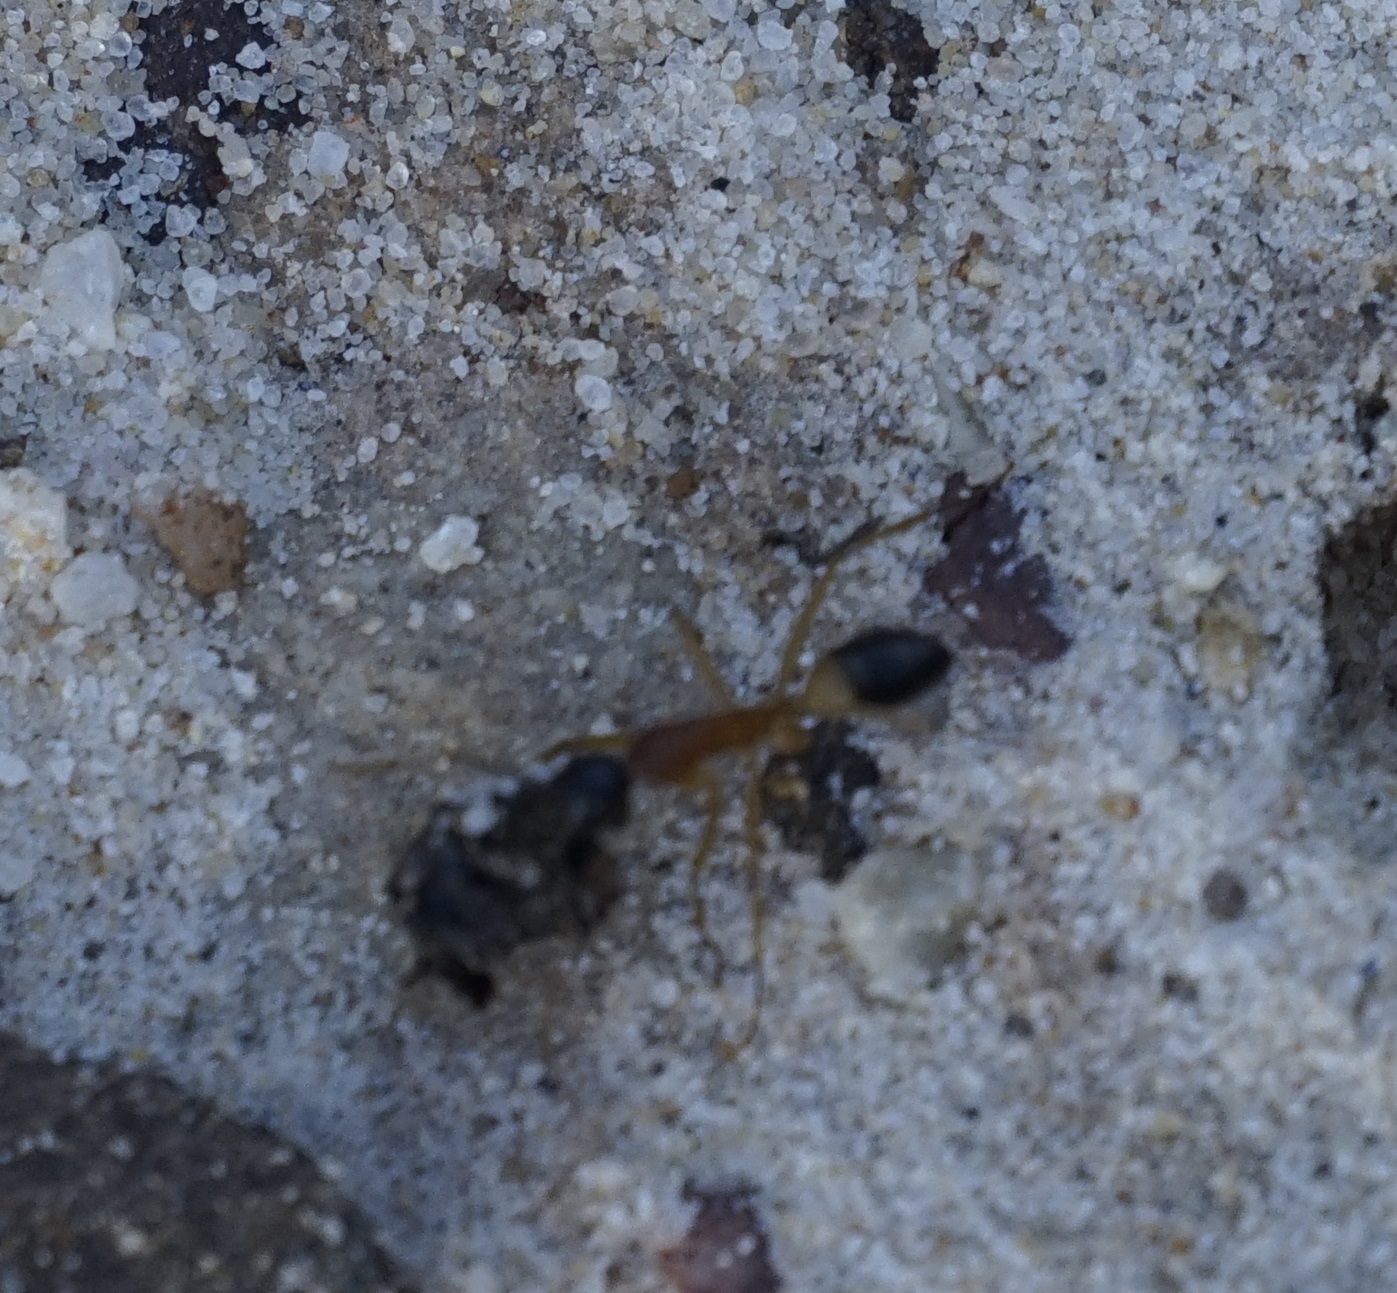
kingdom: Animalia
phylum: Arthropoda
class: Insecta
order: Hymenoptera
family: Formicidae
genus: Camponotus
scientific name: Camponotus consobrinus
